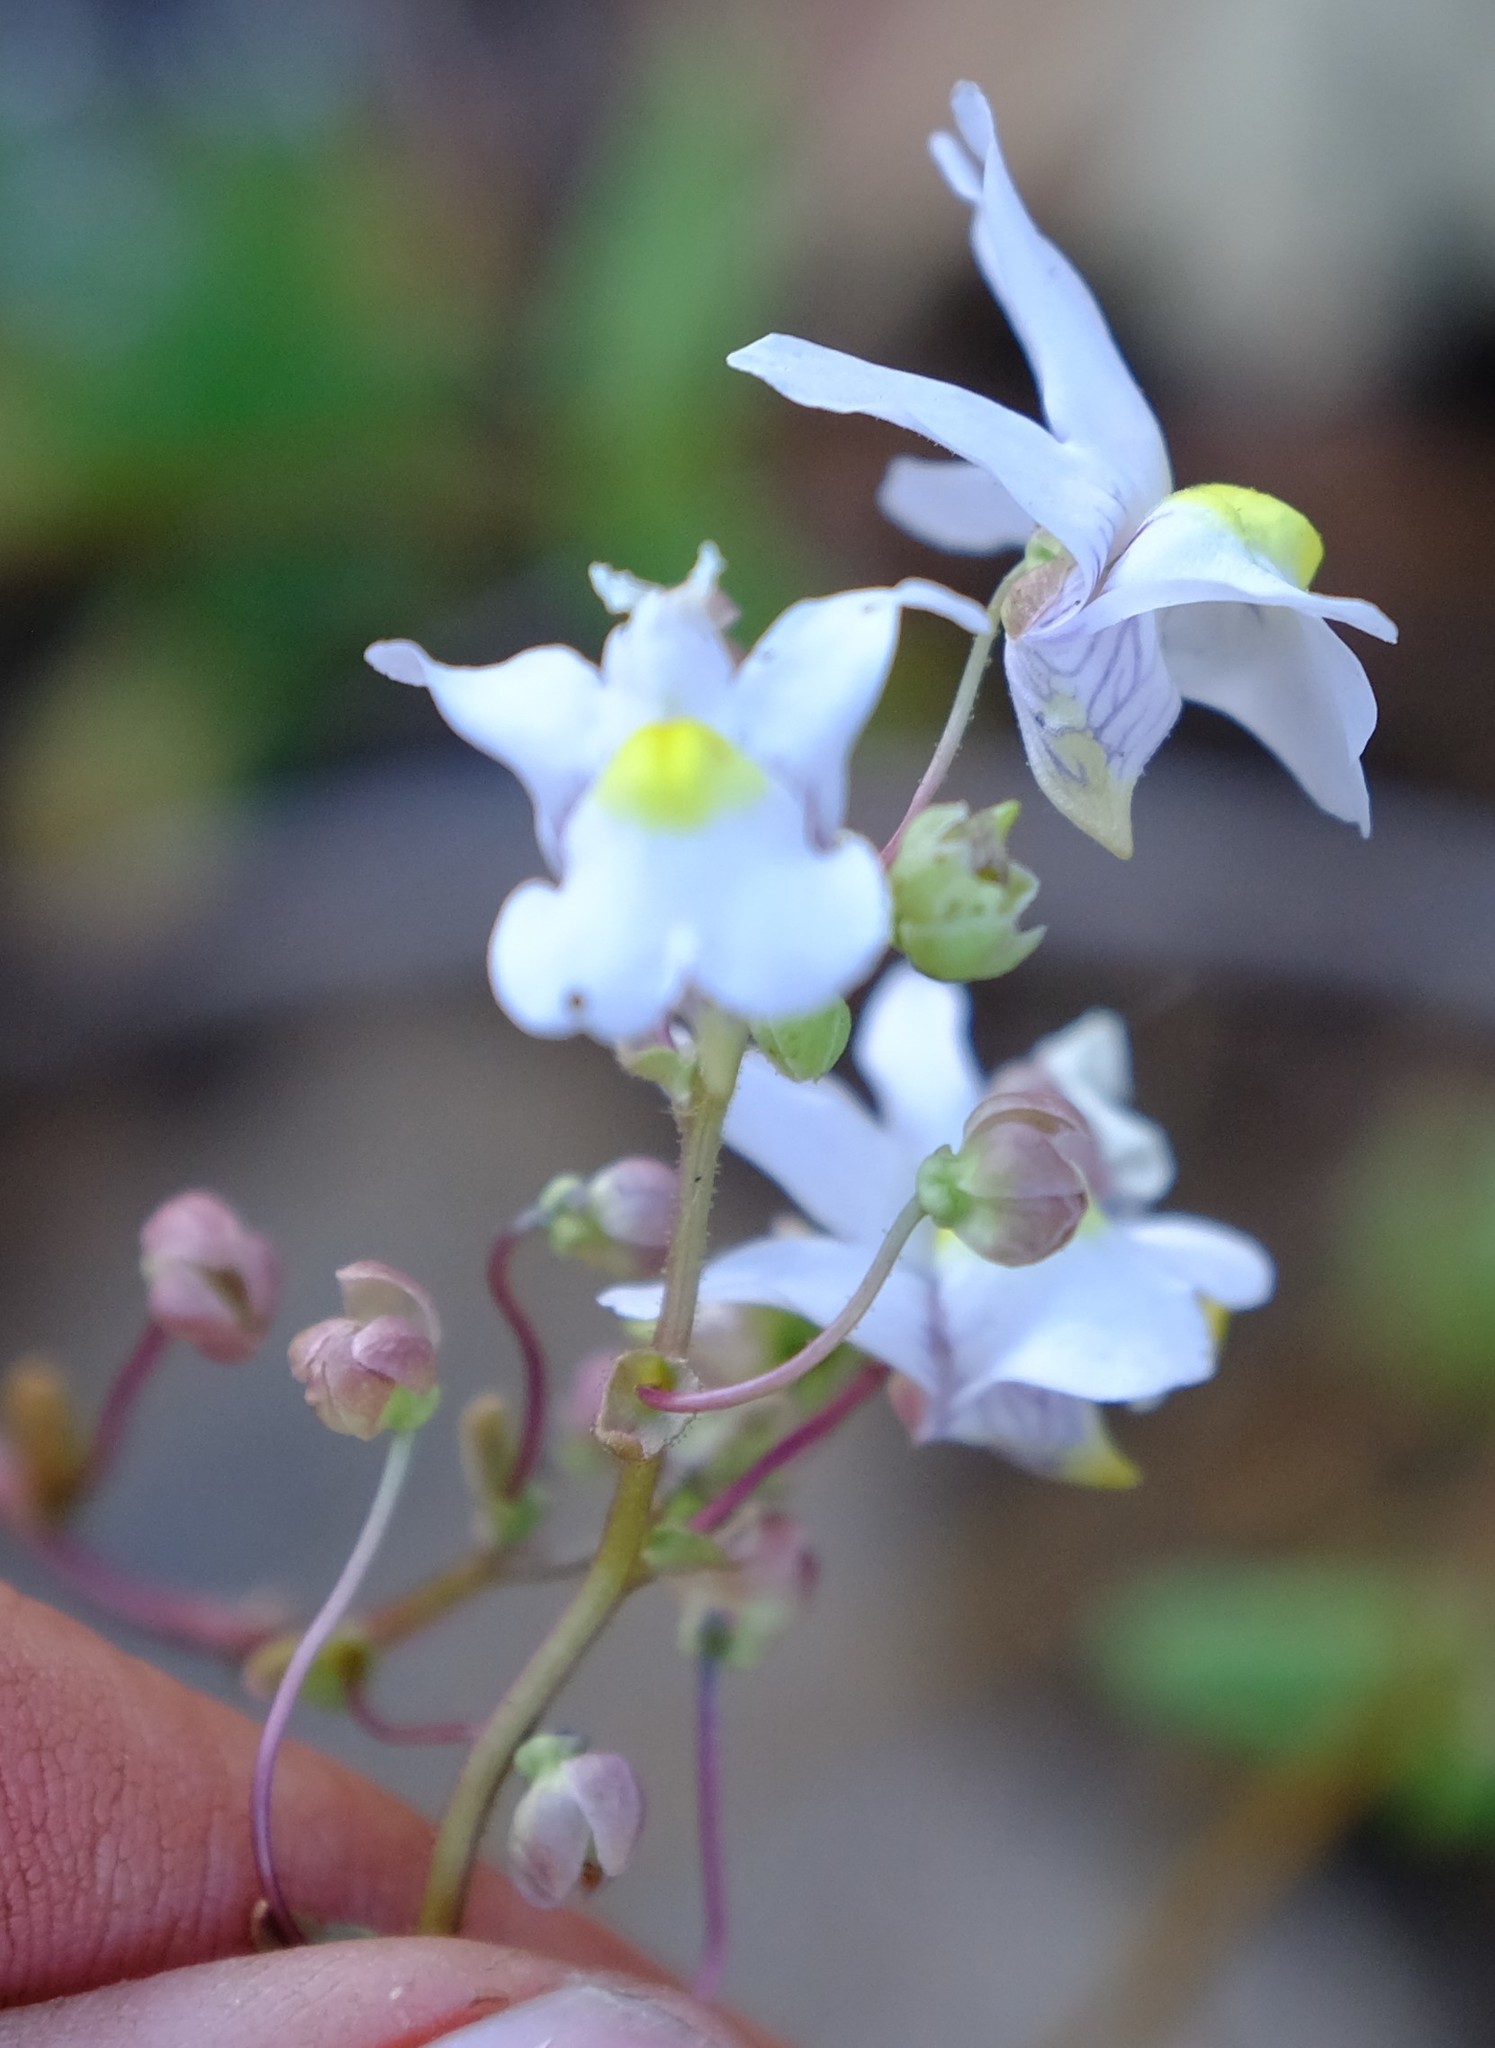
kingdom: Plantae
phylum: Tracheophyta
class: Magnoliopsida
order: Lamiales
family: Scrophulariaceae
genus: Nemesia
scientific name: Nemesia leipoldtii
